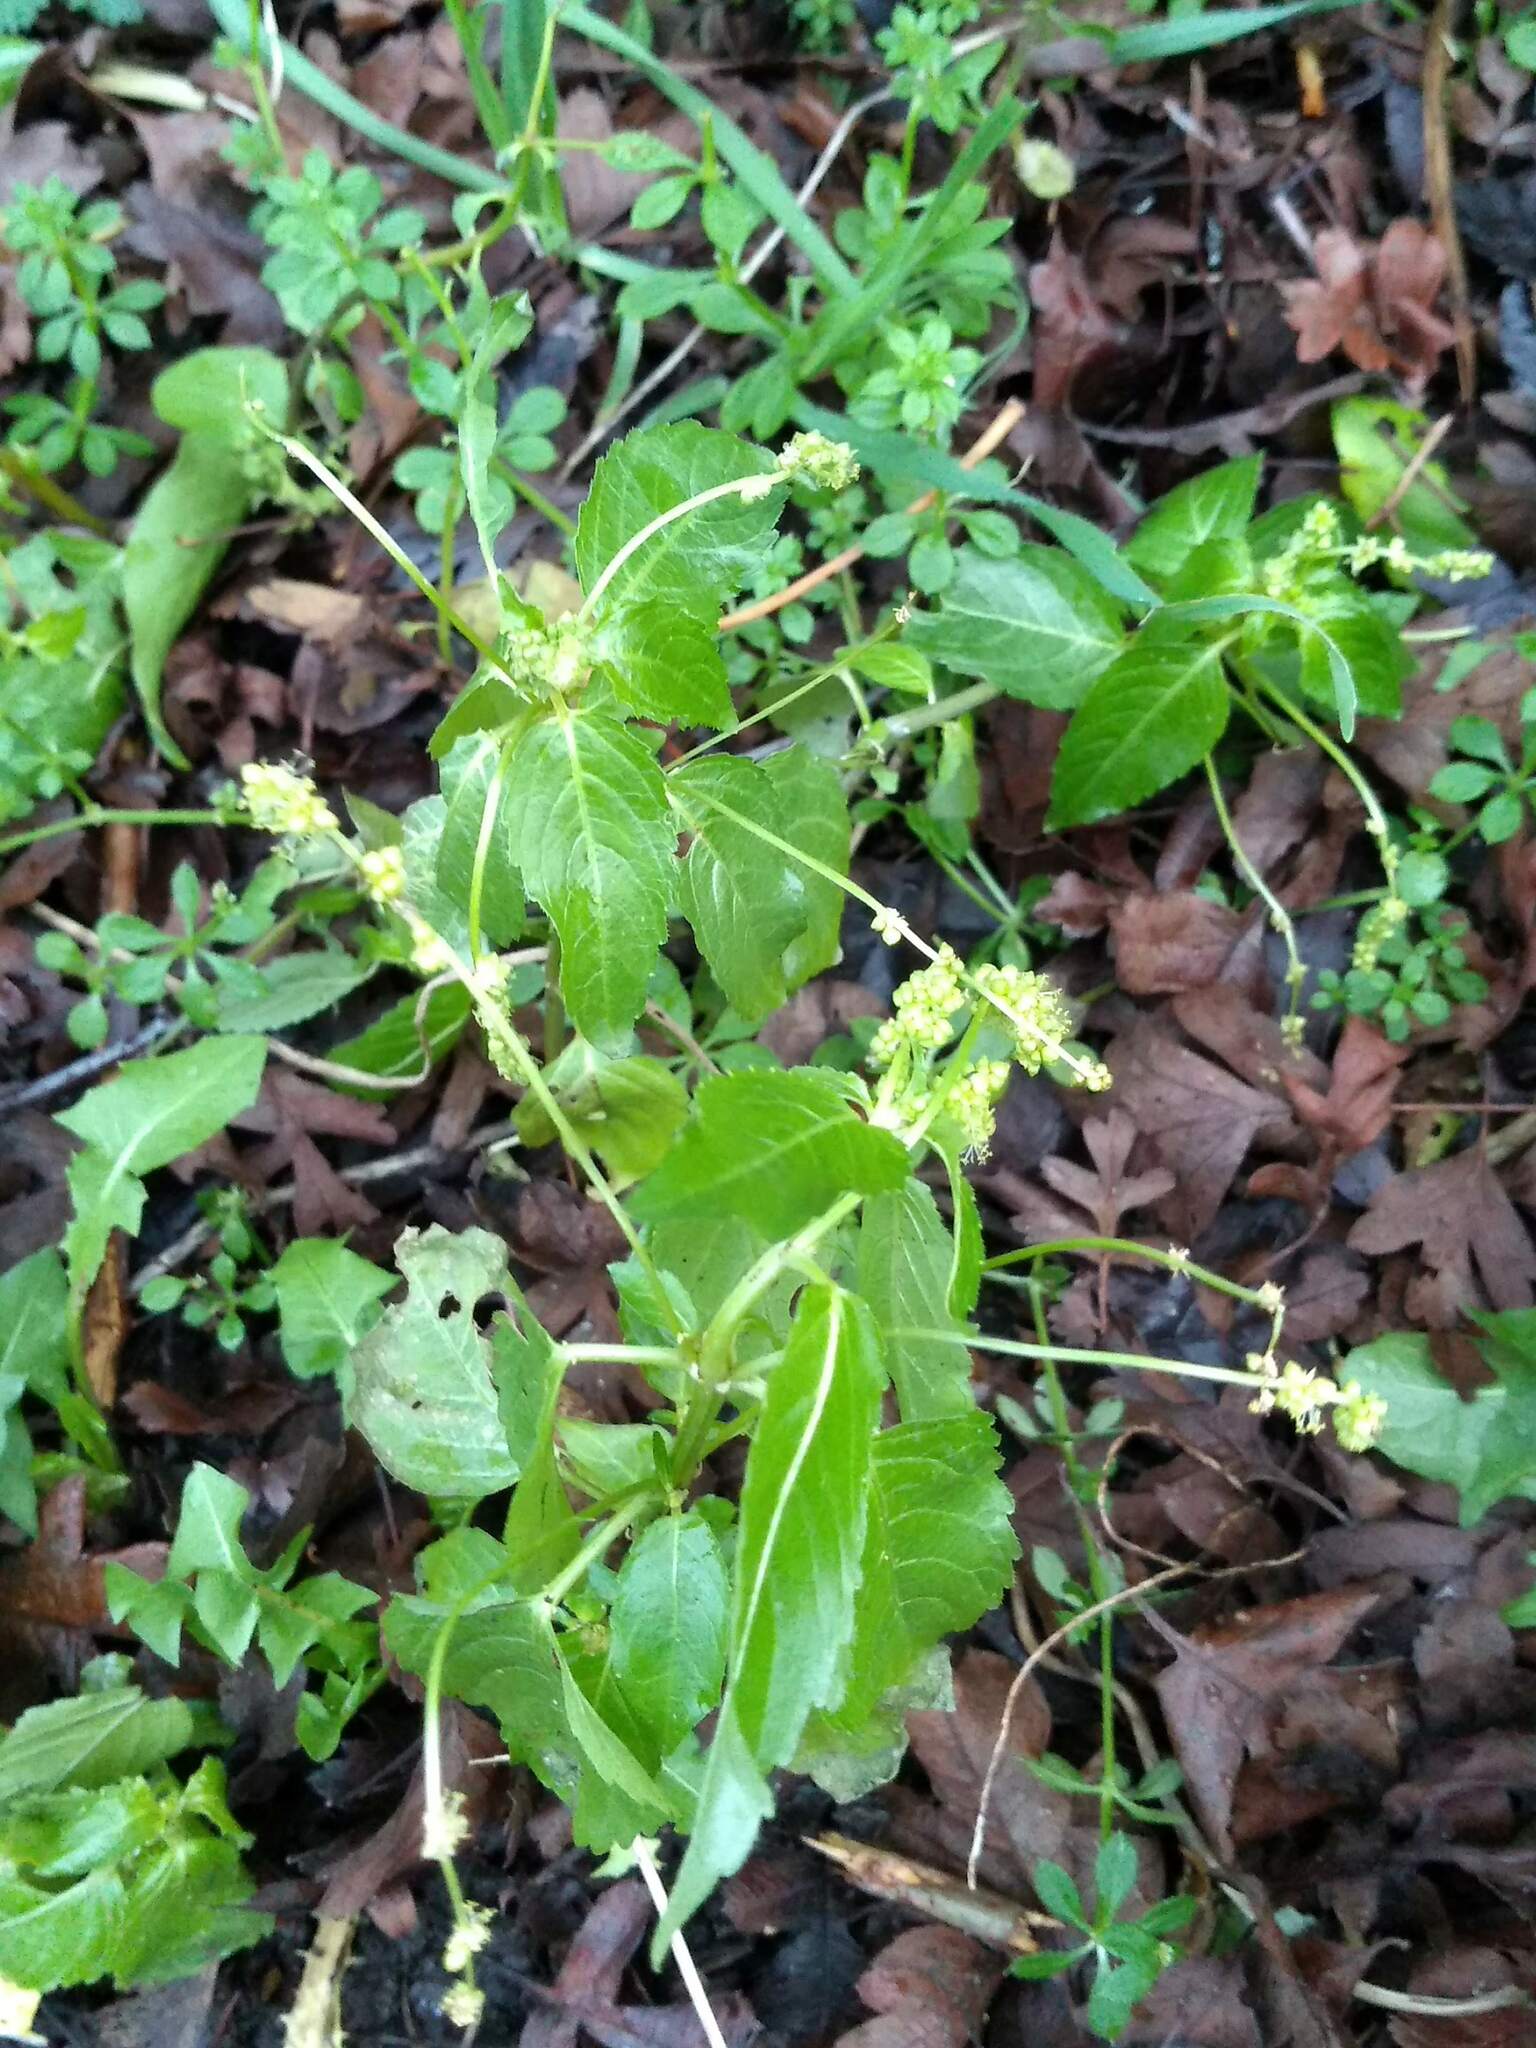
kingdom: Plantae
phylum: Tracheophyta
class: Magnoliopsida
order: Malpighiales
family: Euphorbiaceae
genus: Mercurialis
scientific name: Mercurialis annua
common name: Annual mercury
